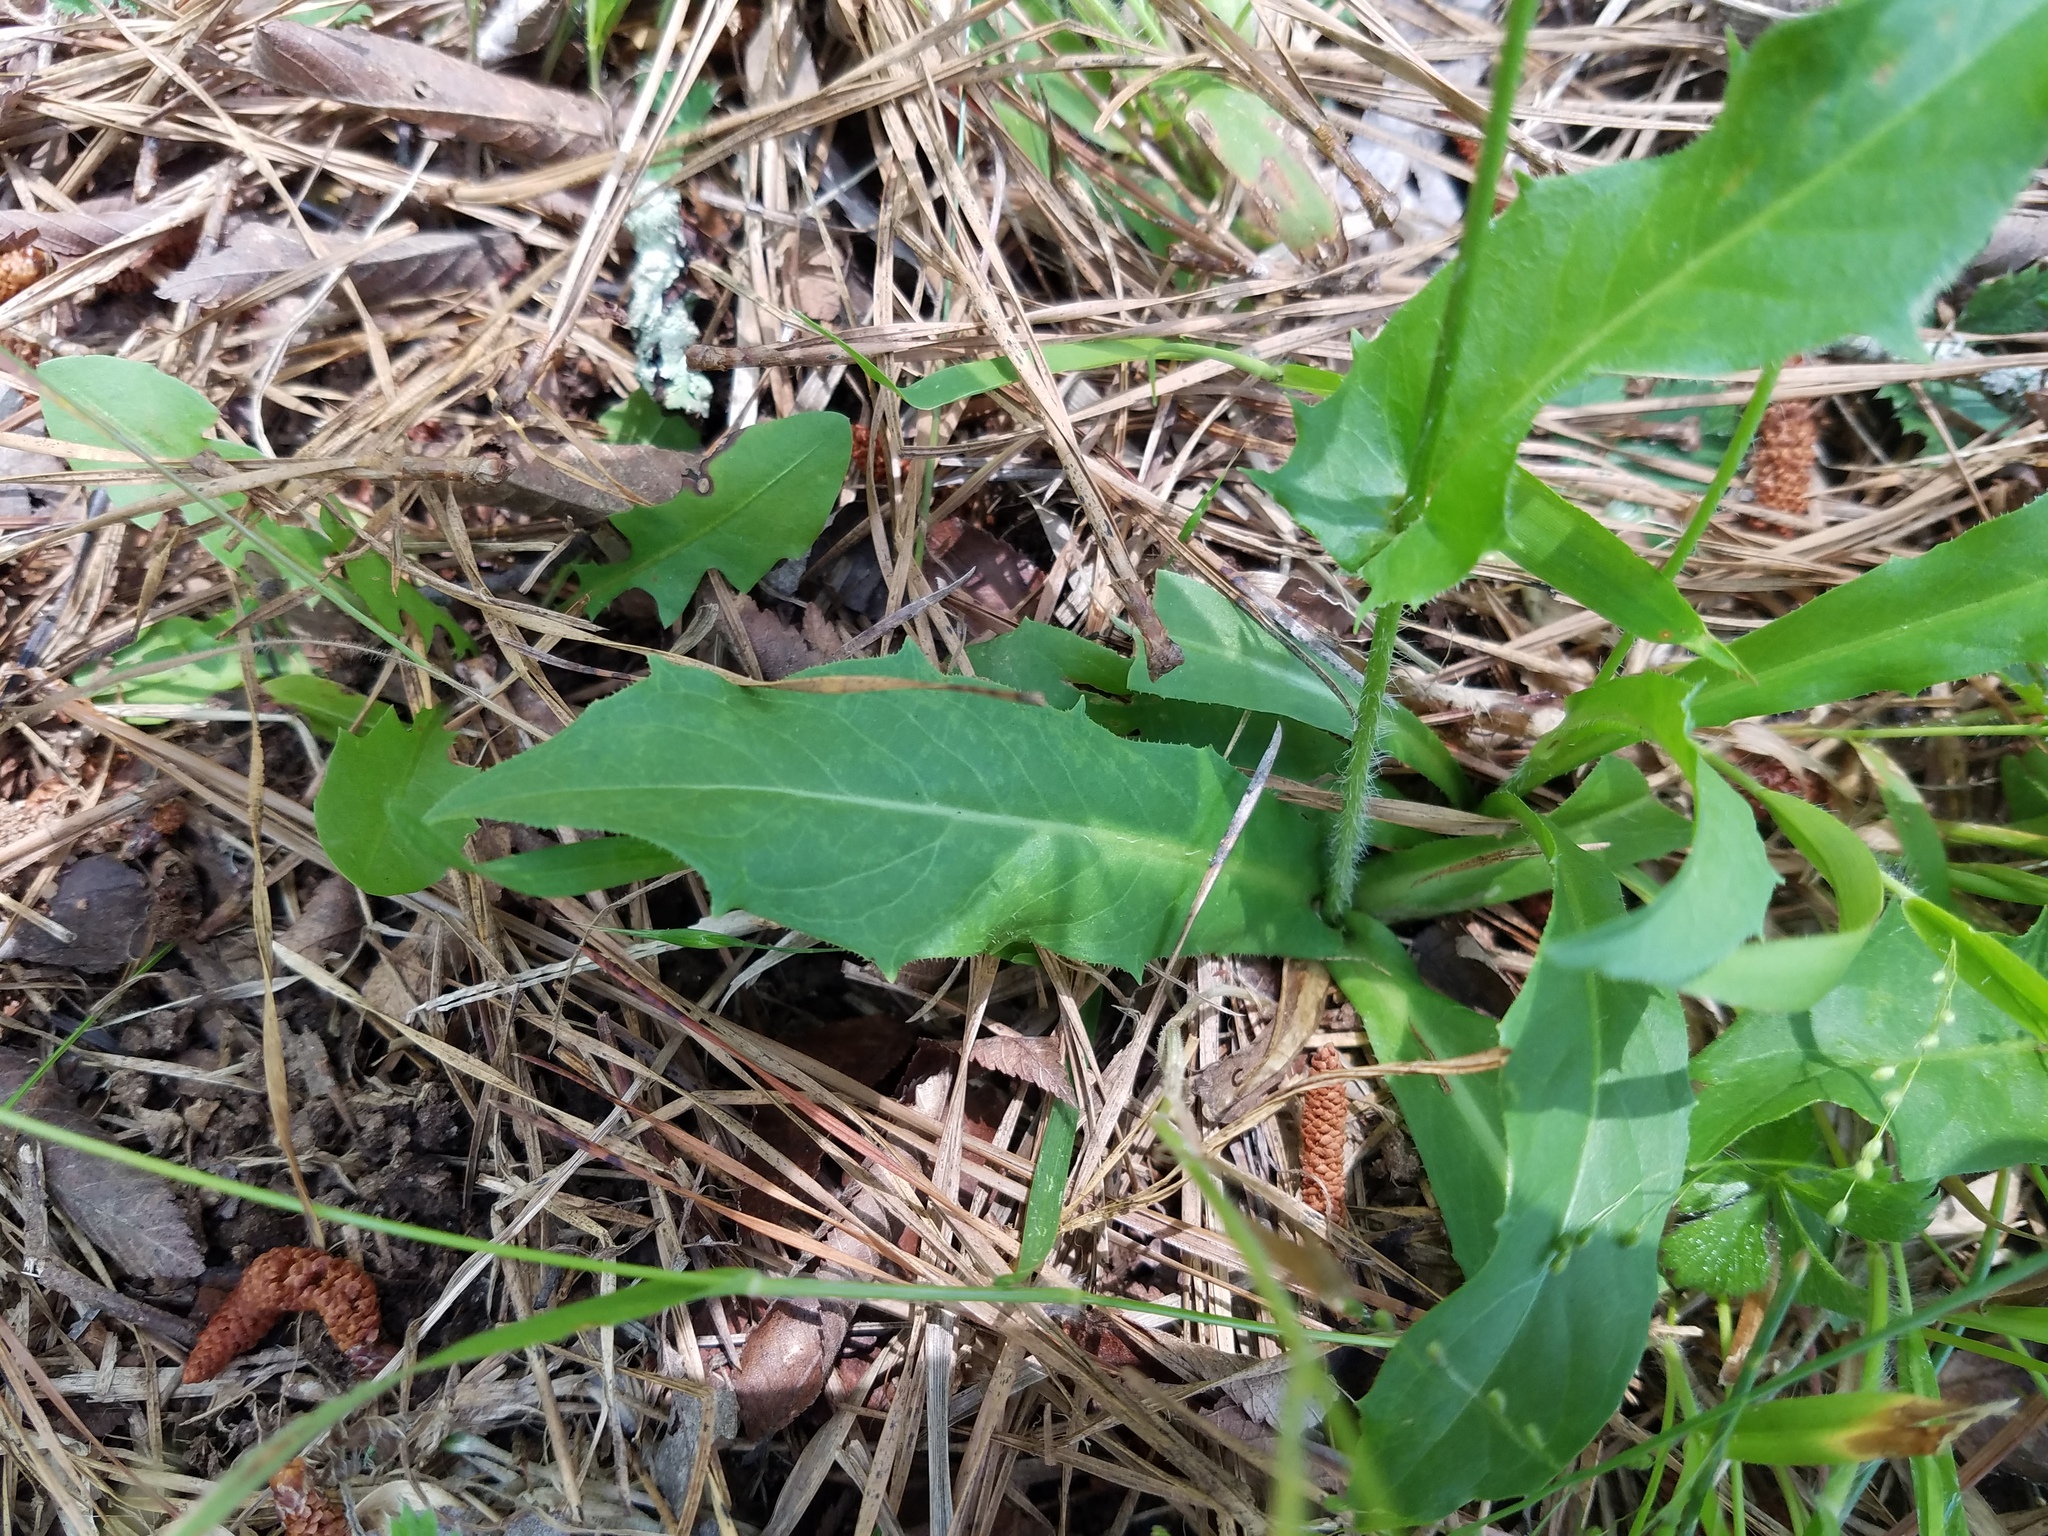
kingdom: Plantae
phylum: Tracheophyta
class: Magnoliopsida
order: Asterales
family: Asteraceae
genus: Hypochaeris
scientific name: Hypochaeris chillensis
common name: Brazilian cat's ear
